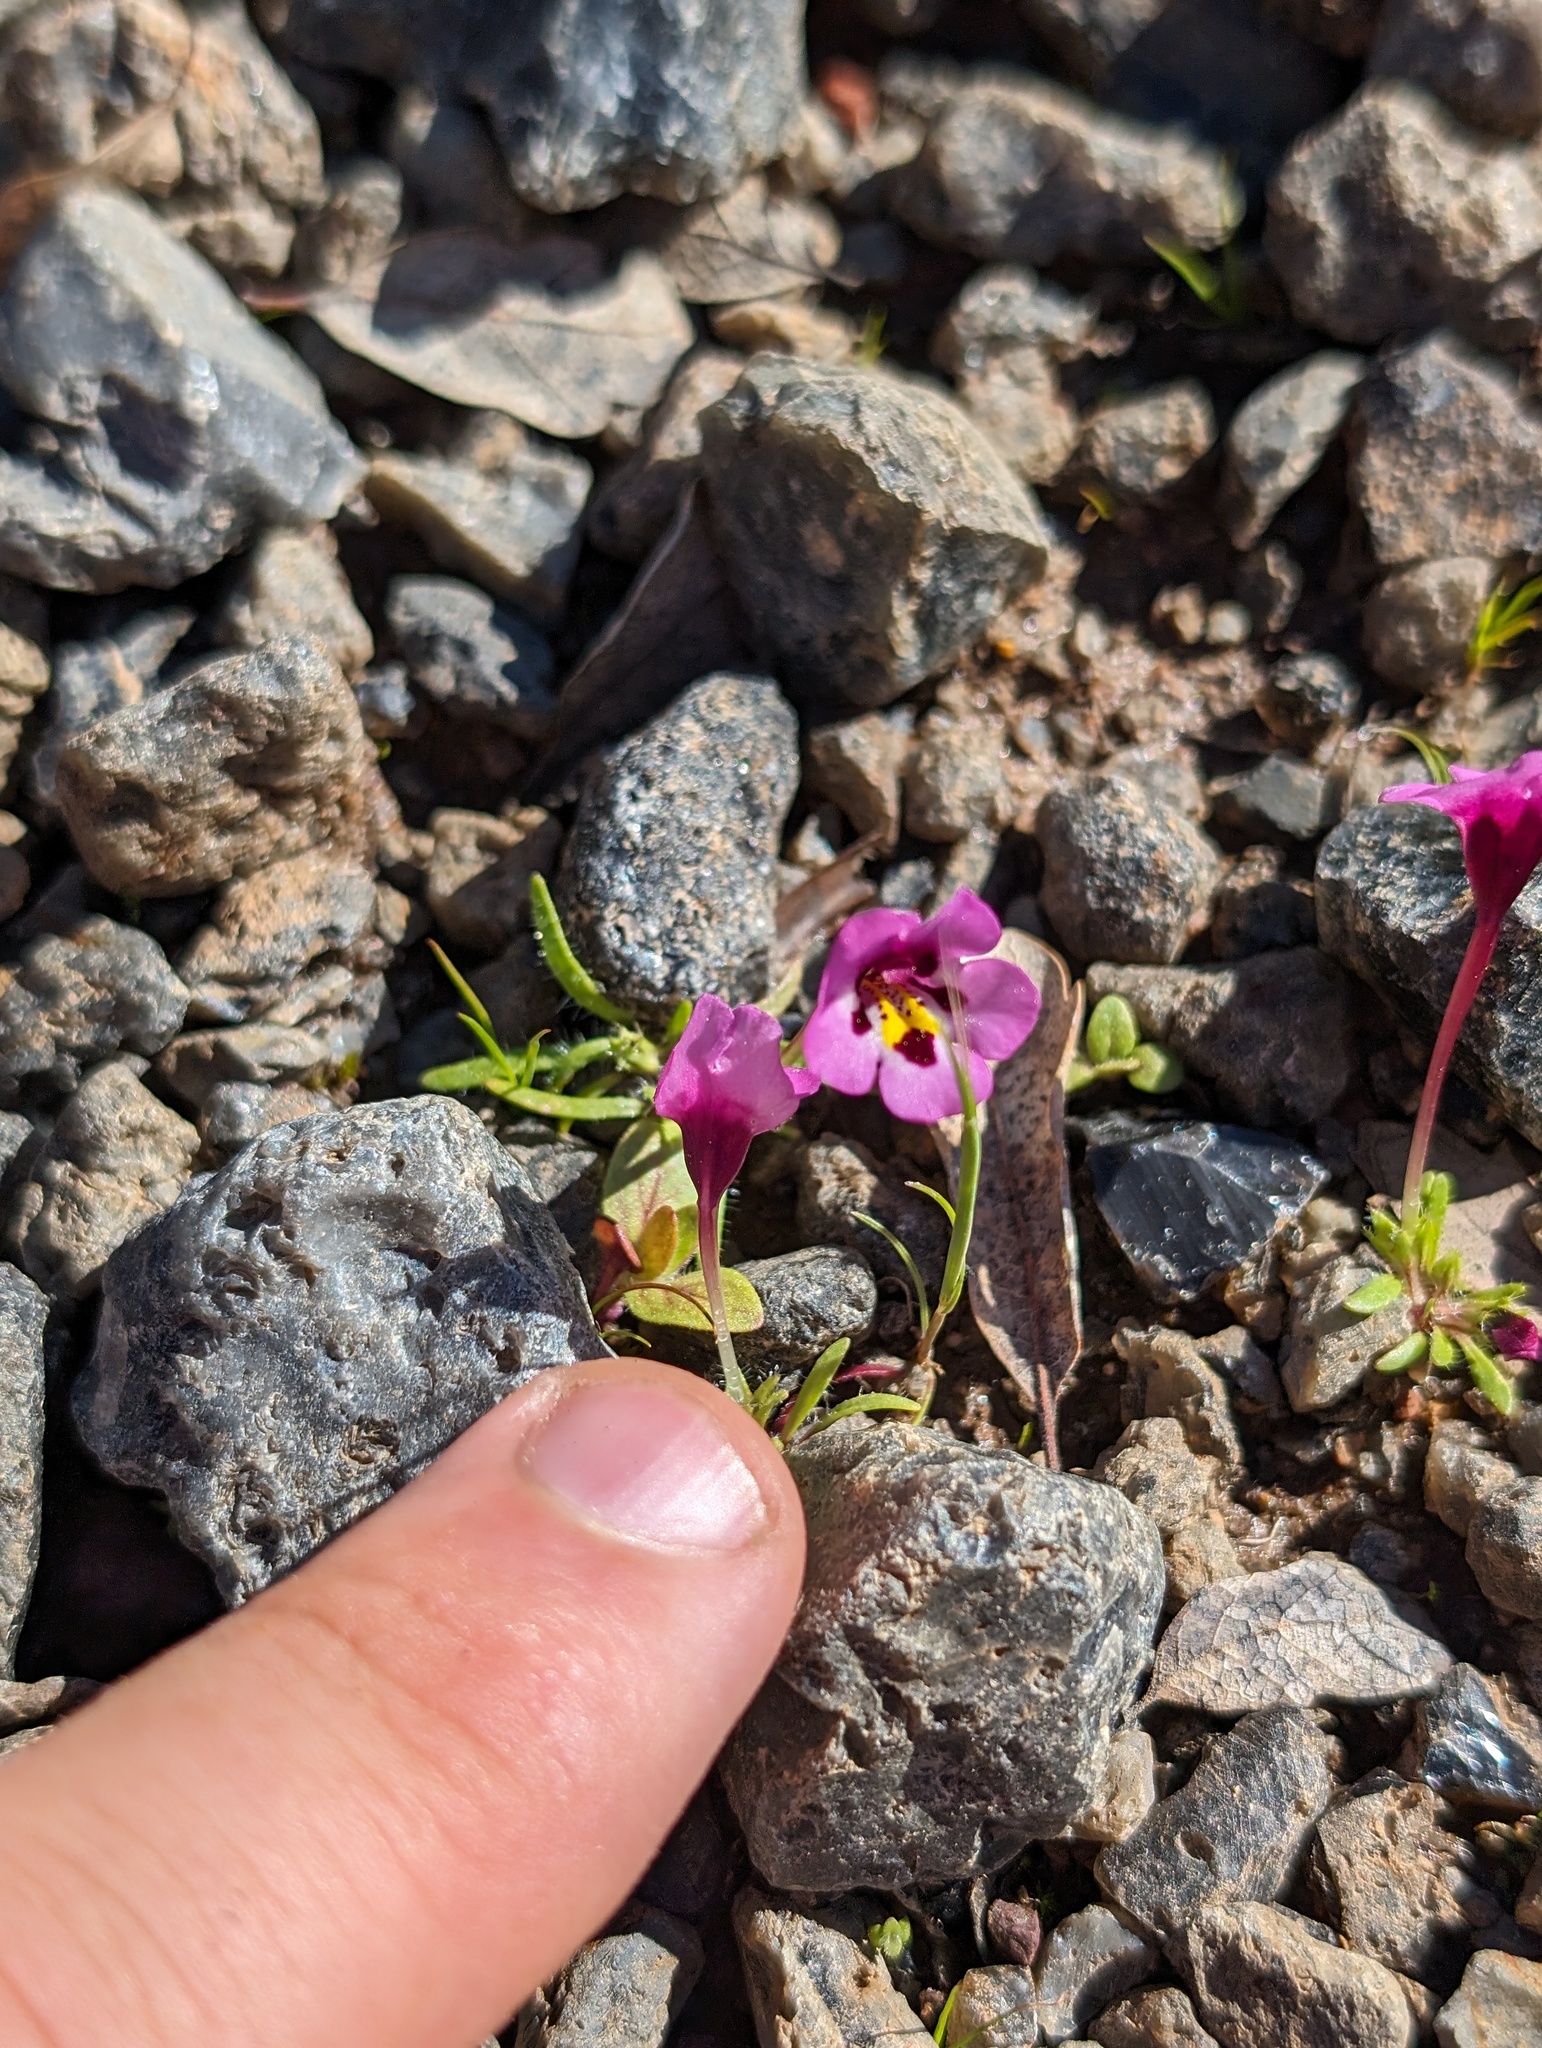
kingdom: Plantae
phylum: Tracheophyta
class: Magnoliopsida
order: Lamiales
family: Phrymaceae
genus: Diplacus
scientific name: Diplacus angustatus
